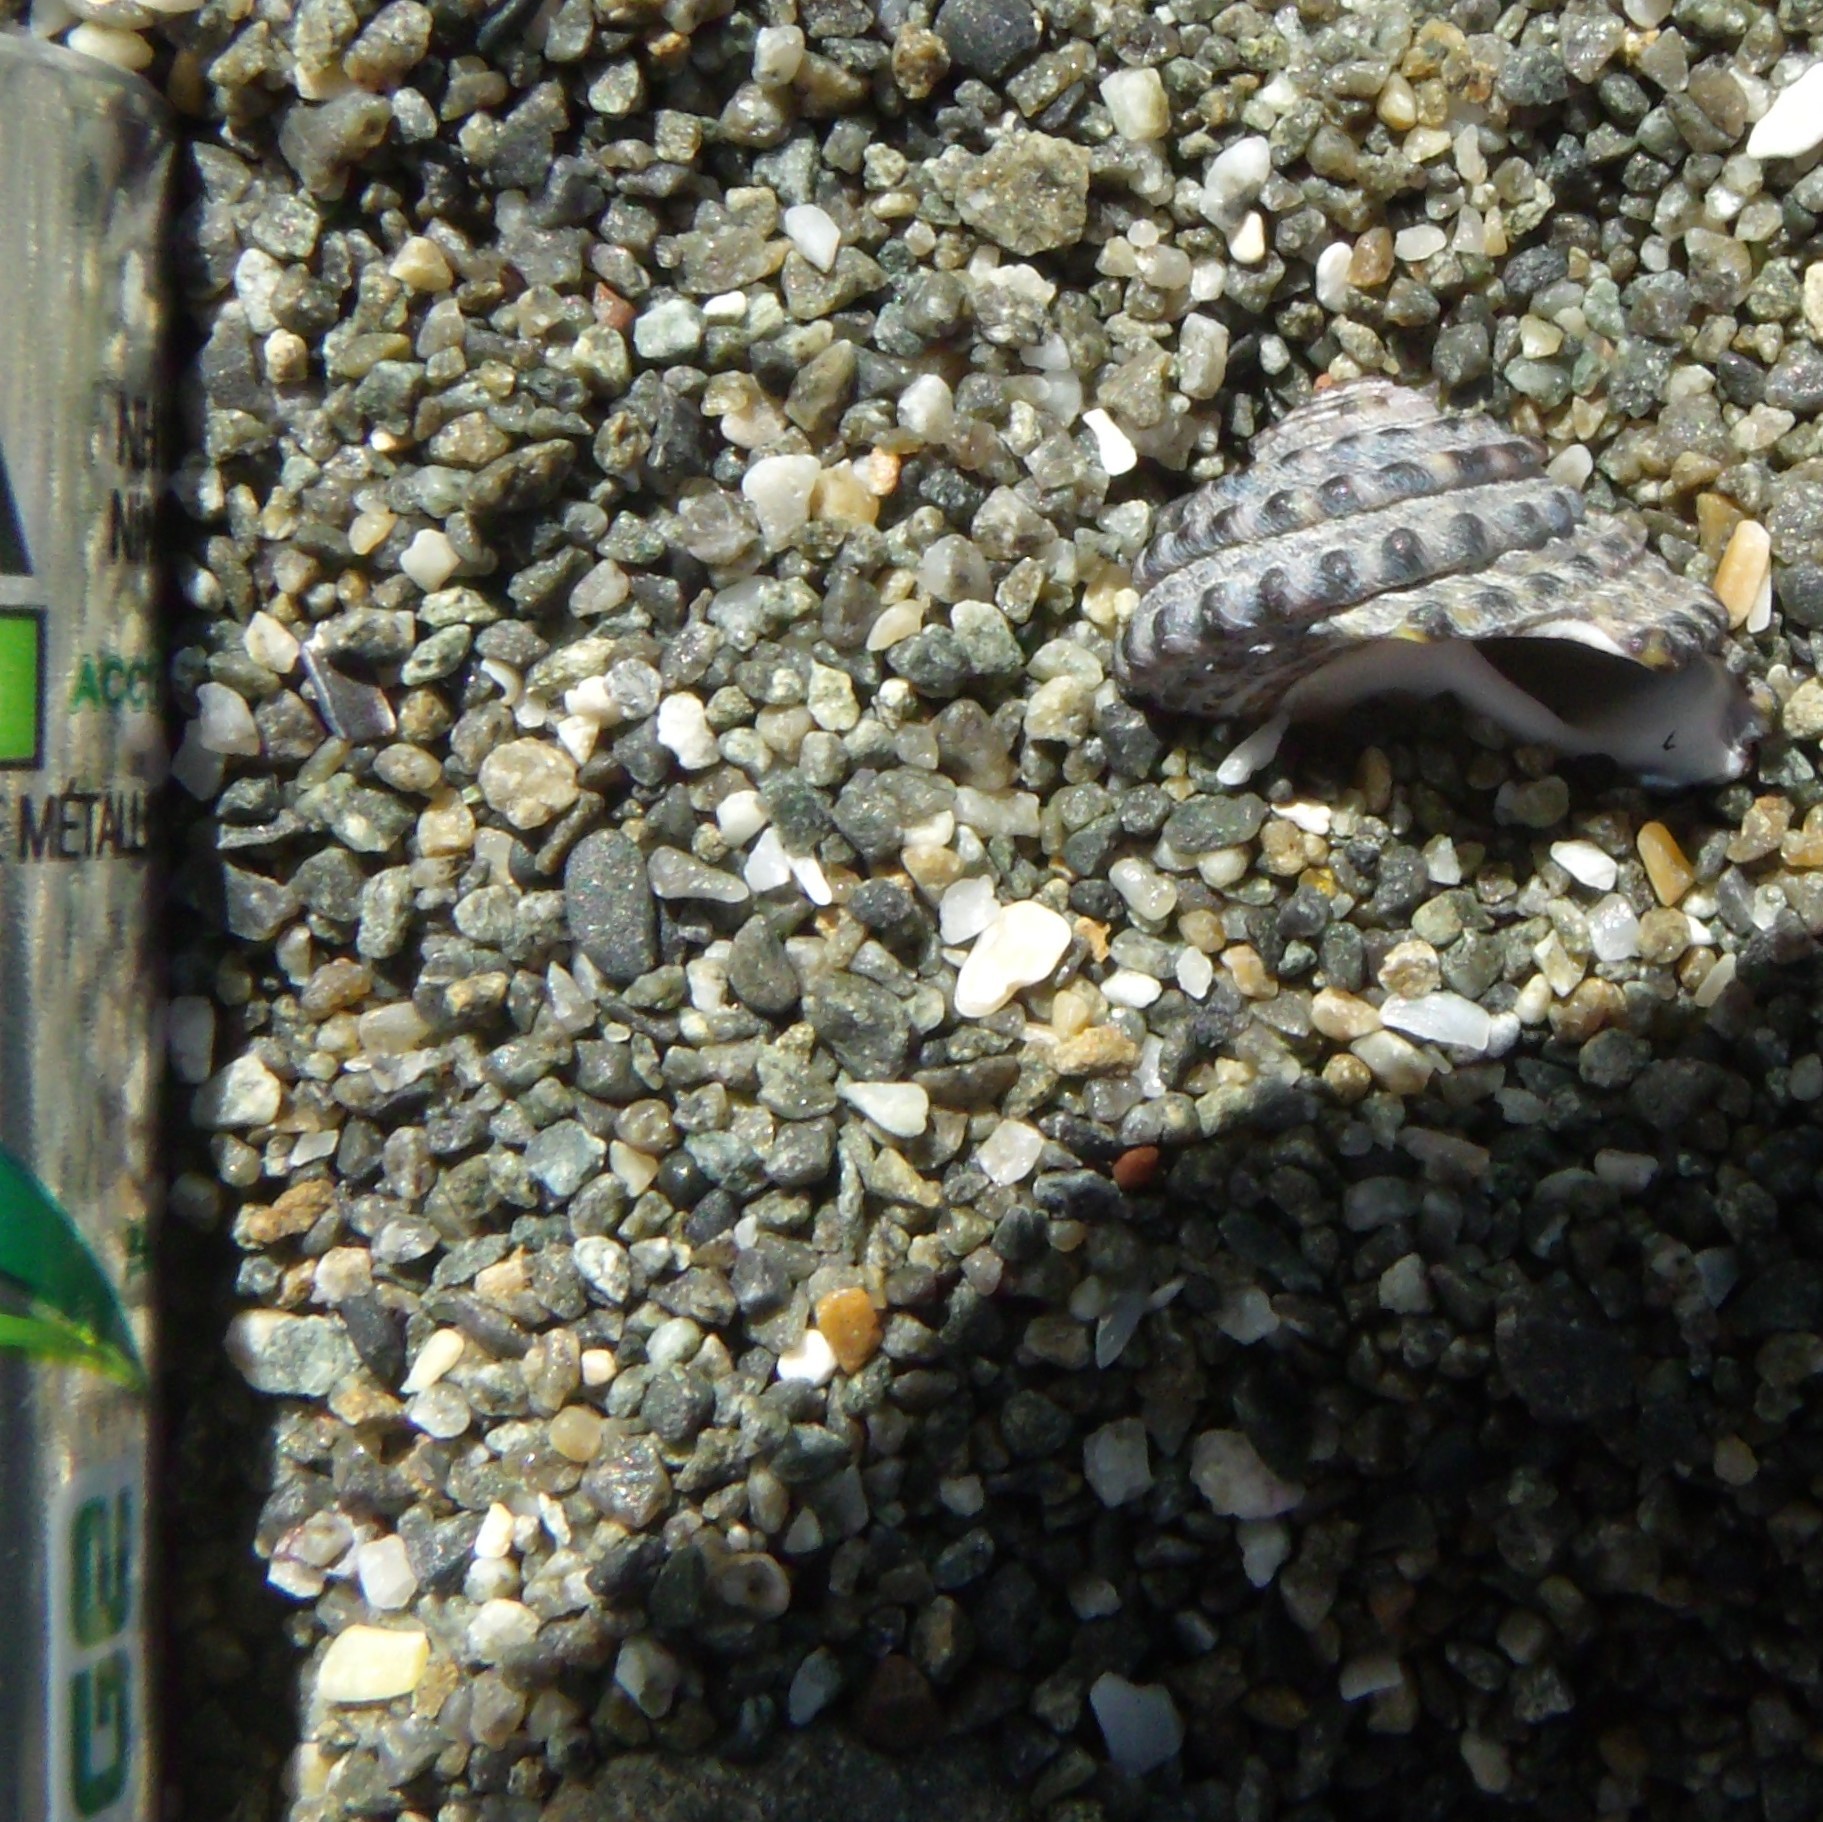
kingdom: Animalia
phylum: Mollusca
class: Gastropoda
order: Trochida
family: Trochidae
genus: Diloma
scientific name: Diloma bicanaliculatum
